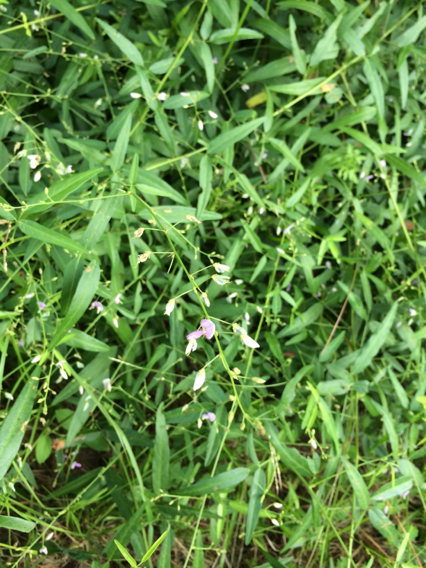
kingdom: Plantae
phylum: Tracheophyta
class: Magnoliopsida
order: Fabales
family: Fabaceae
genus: Desmodium
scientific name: Desmodium paniculatum
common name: Panicled tick-clover
